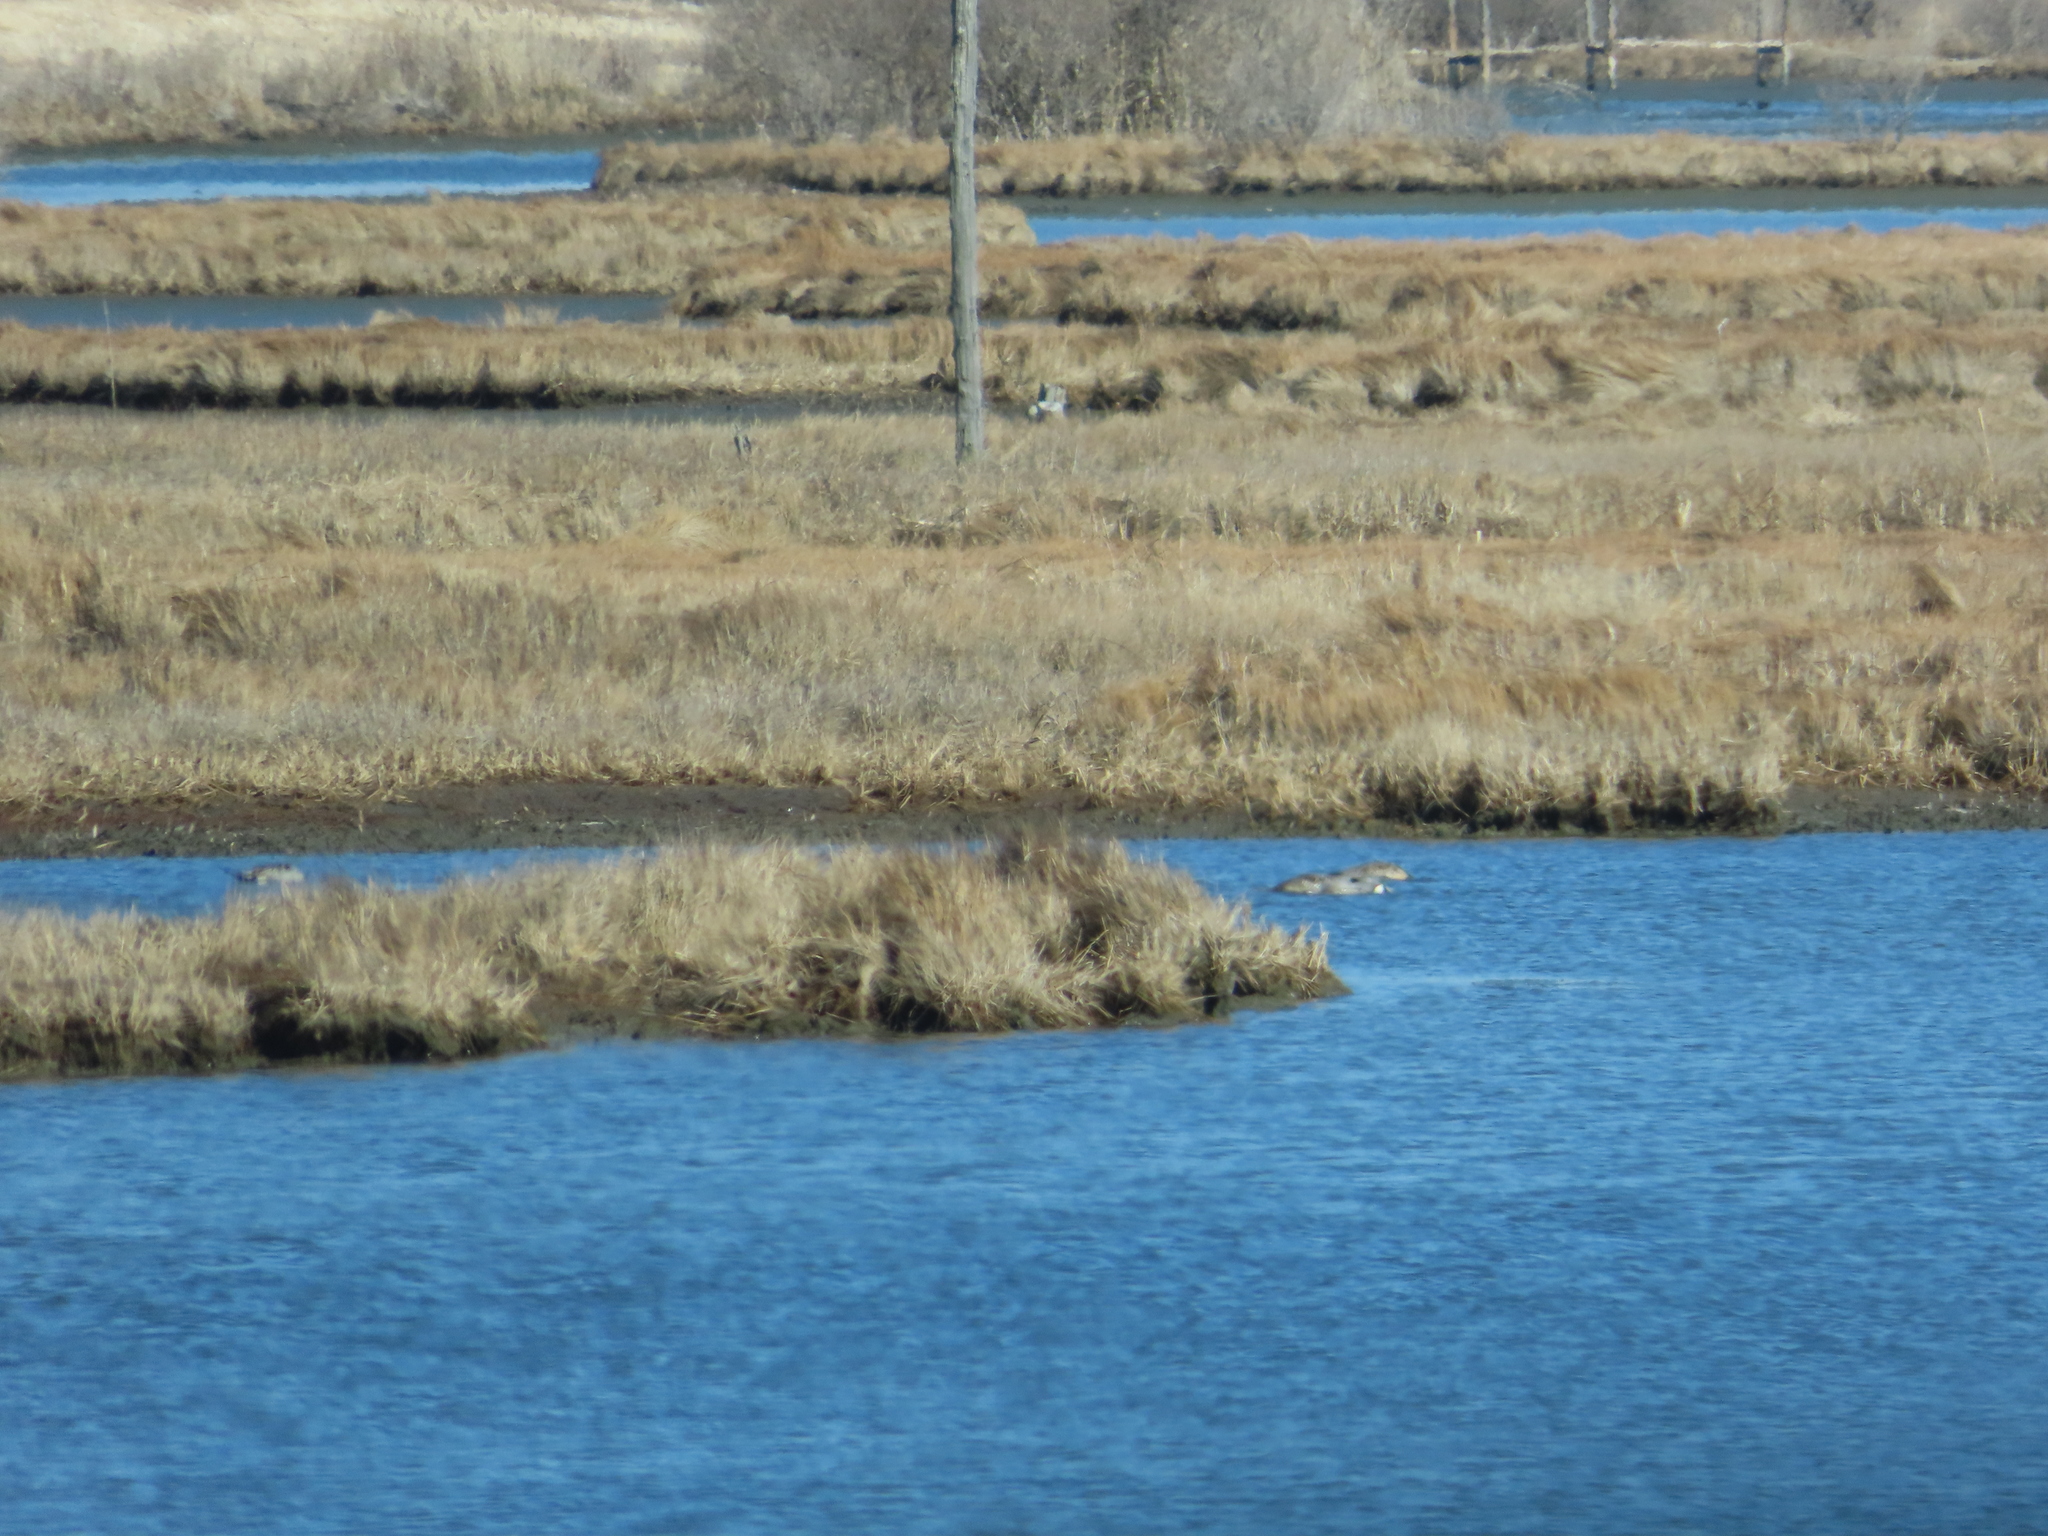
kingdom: Animalia
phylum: Chordata
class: Aves
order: Anseriformes
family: Anatidae
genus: Anas
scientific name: Anas rubripes
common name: American black duck
